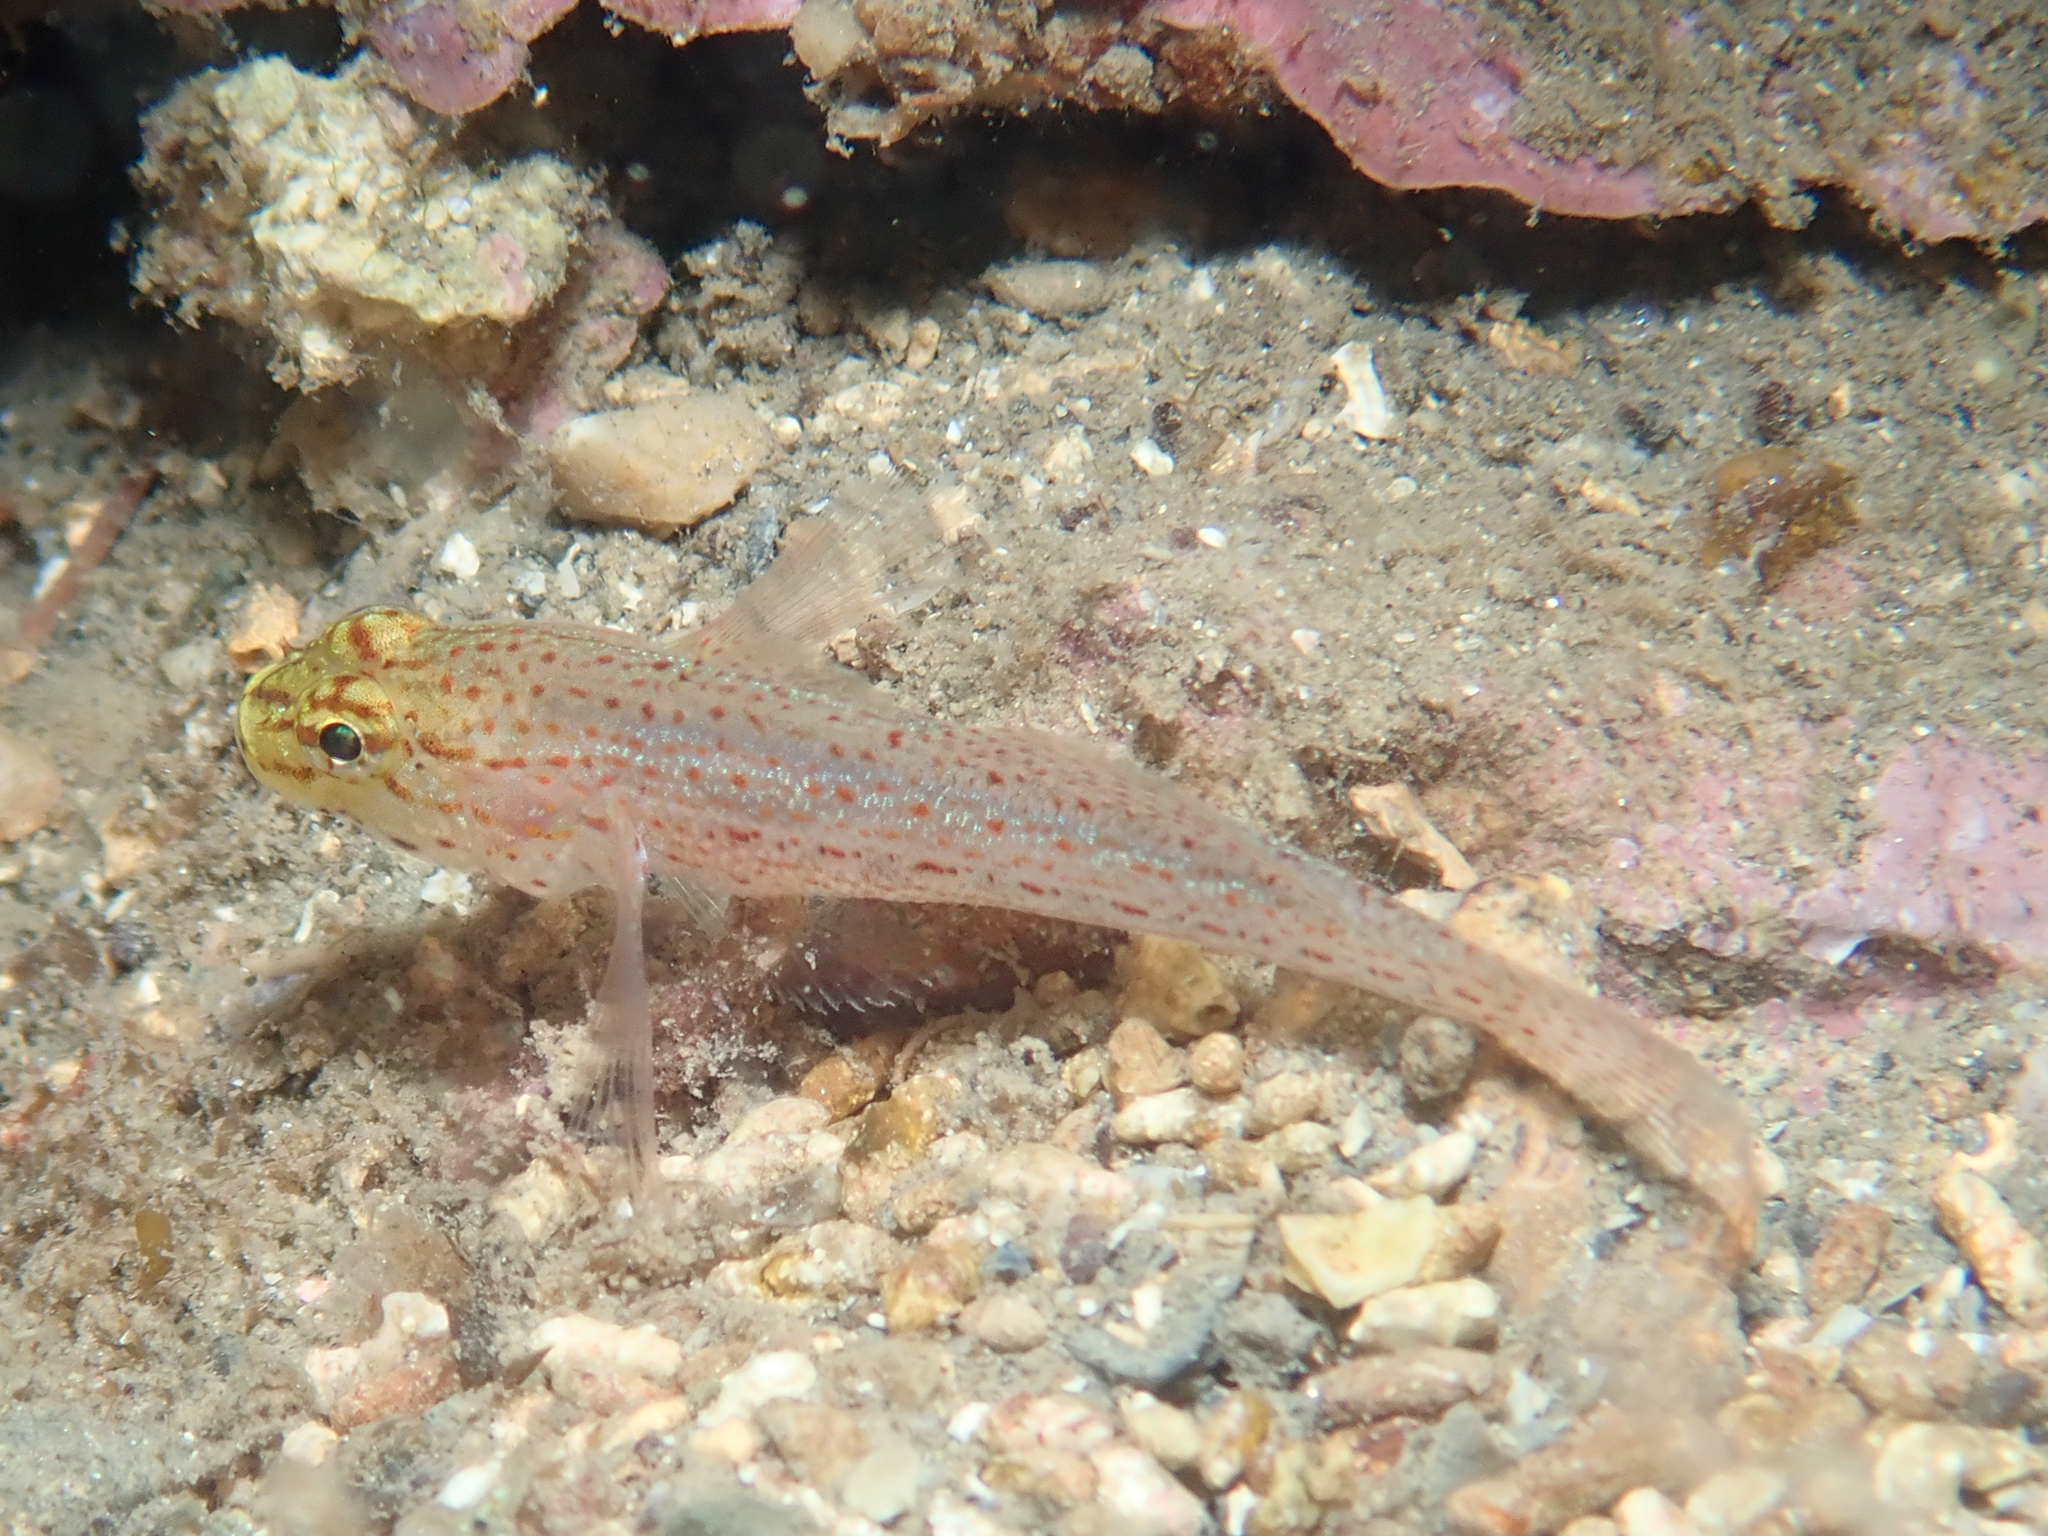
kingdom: Animalia
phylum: Chordata
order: Perciformes
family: Gobiidae
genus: Gobius
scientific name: Gobius xanthocephalus
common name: Golden goby
